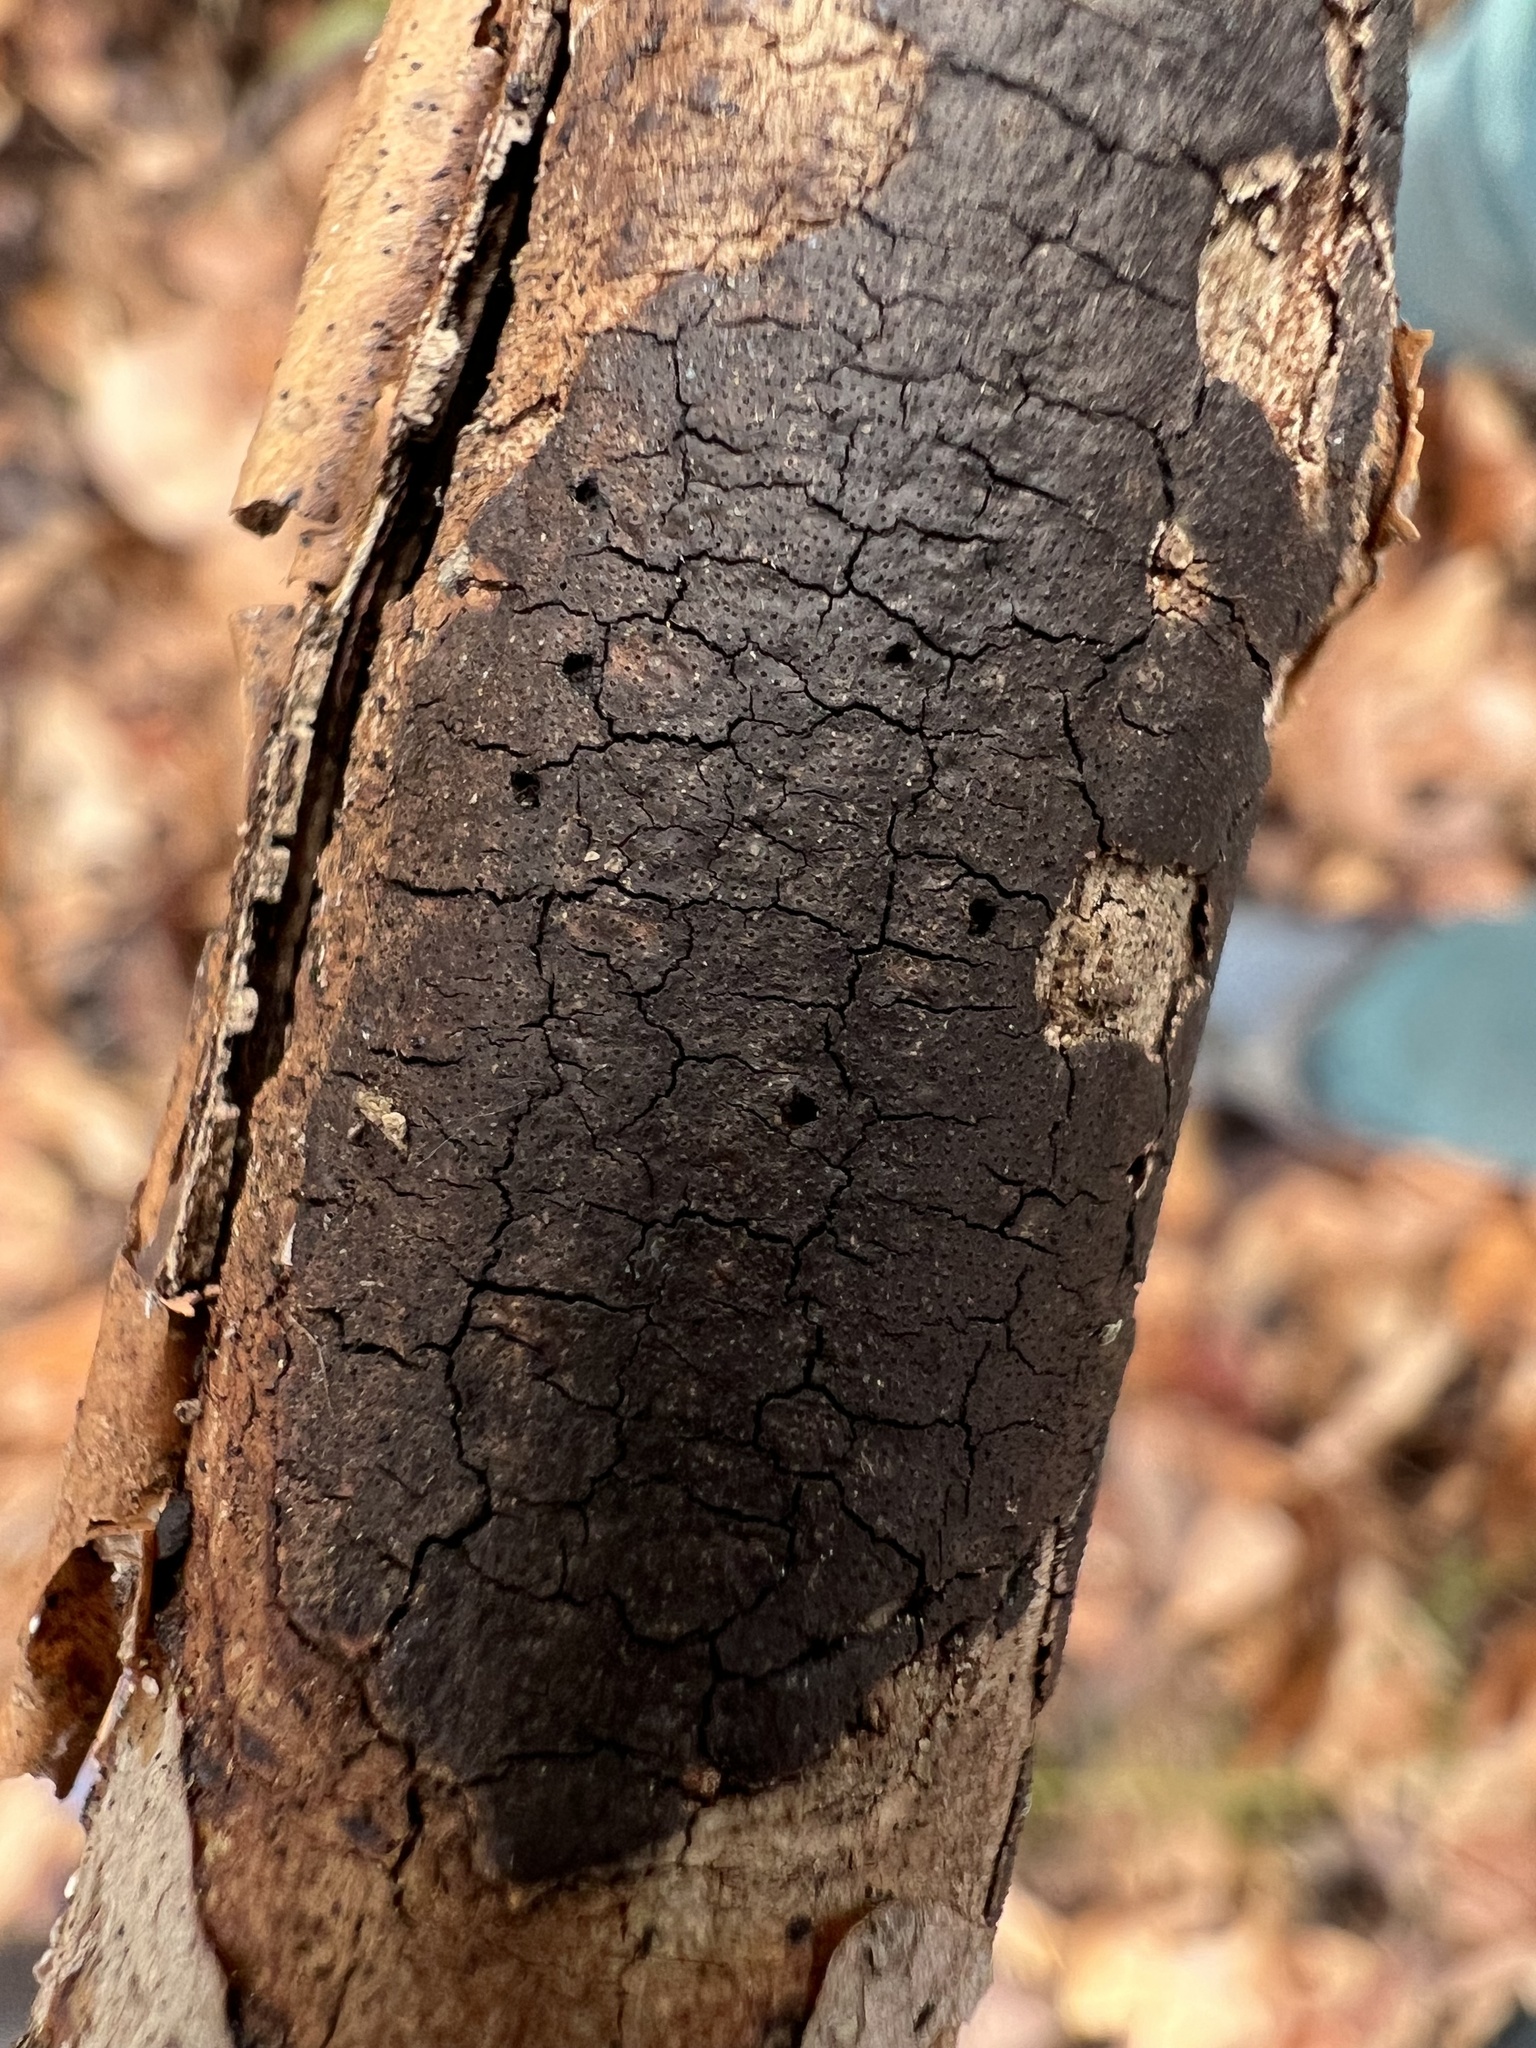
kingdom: Fungi
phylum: Ascomycota
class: Sordariomycetes
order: Xylariales
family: Diatrypaceae
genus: Diatrype
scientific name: Diatrype decorticata
